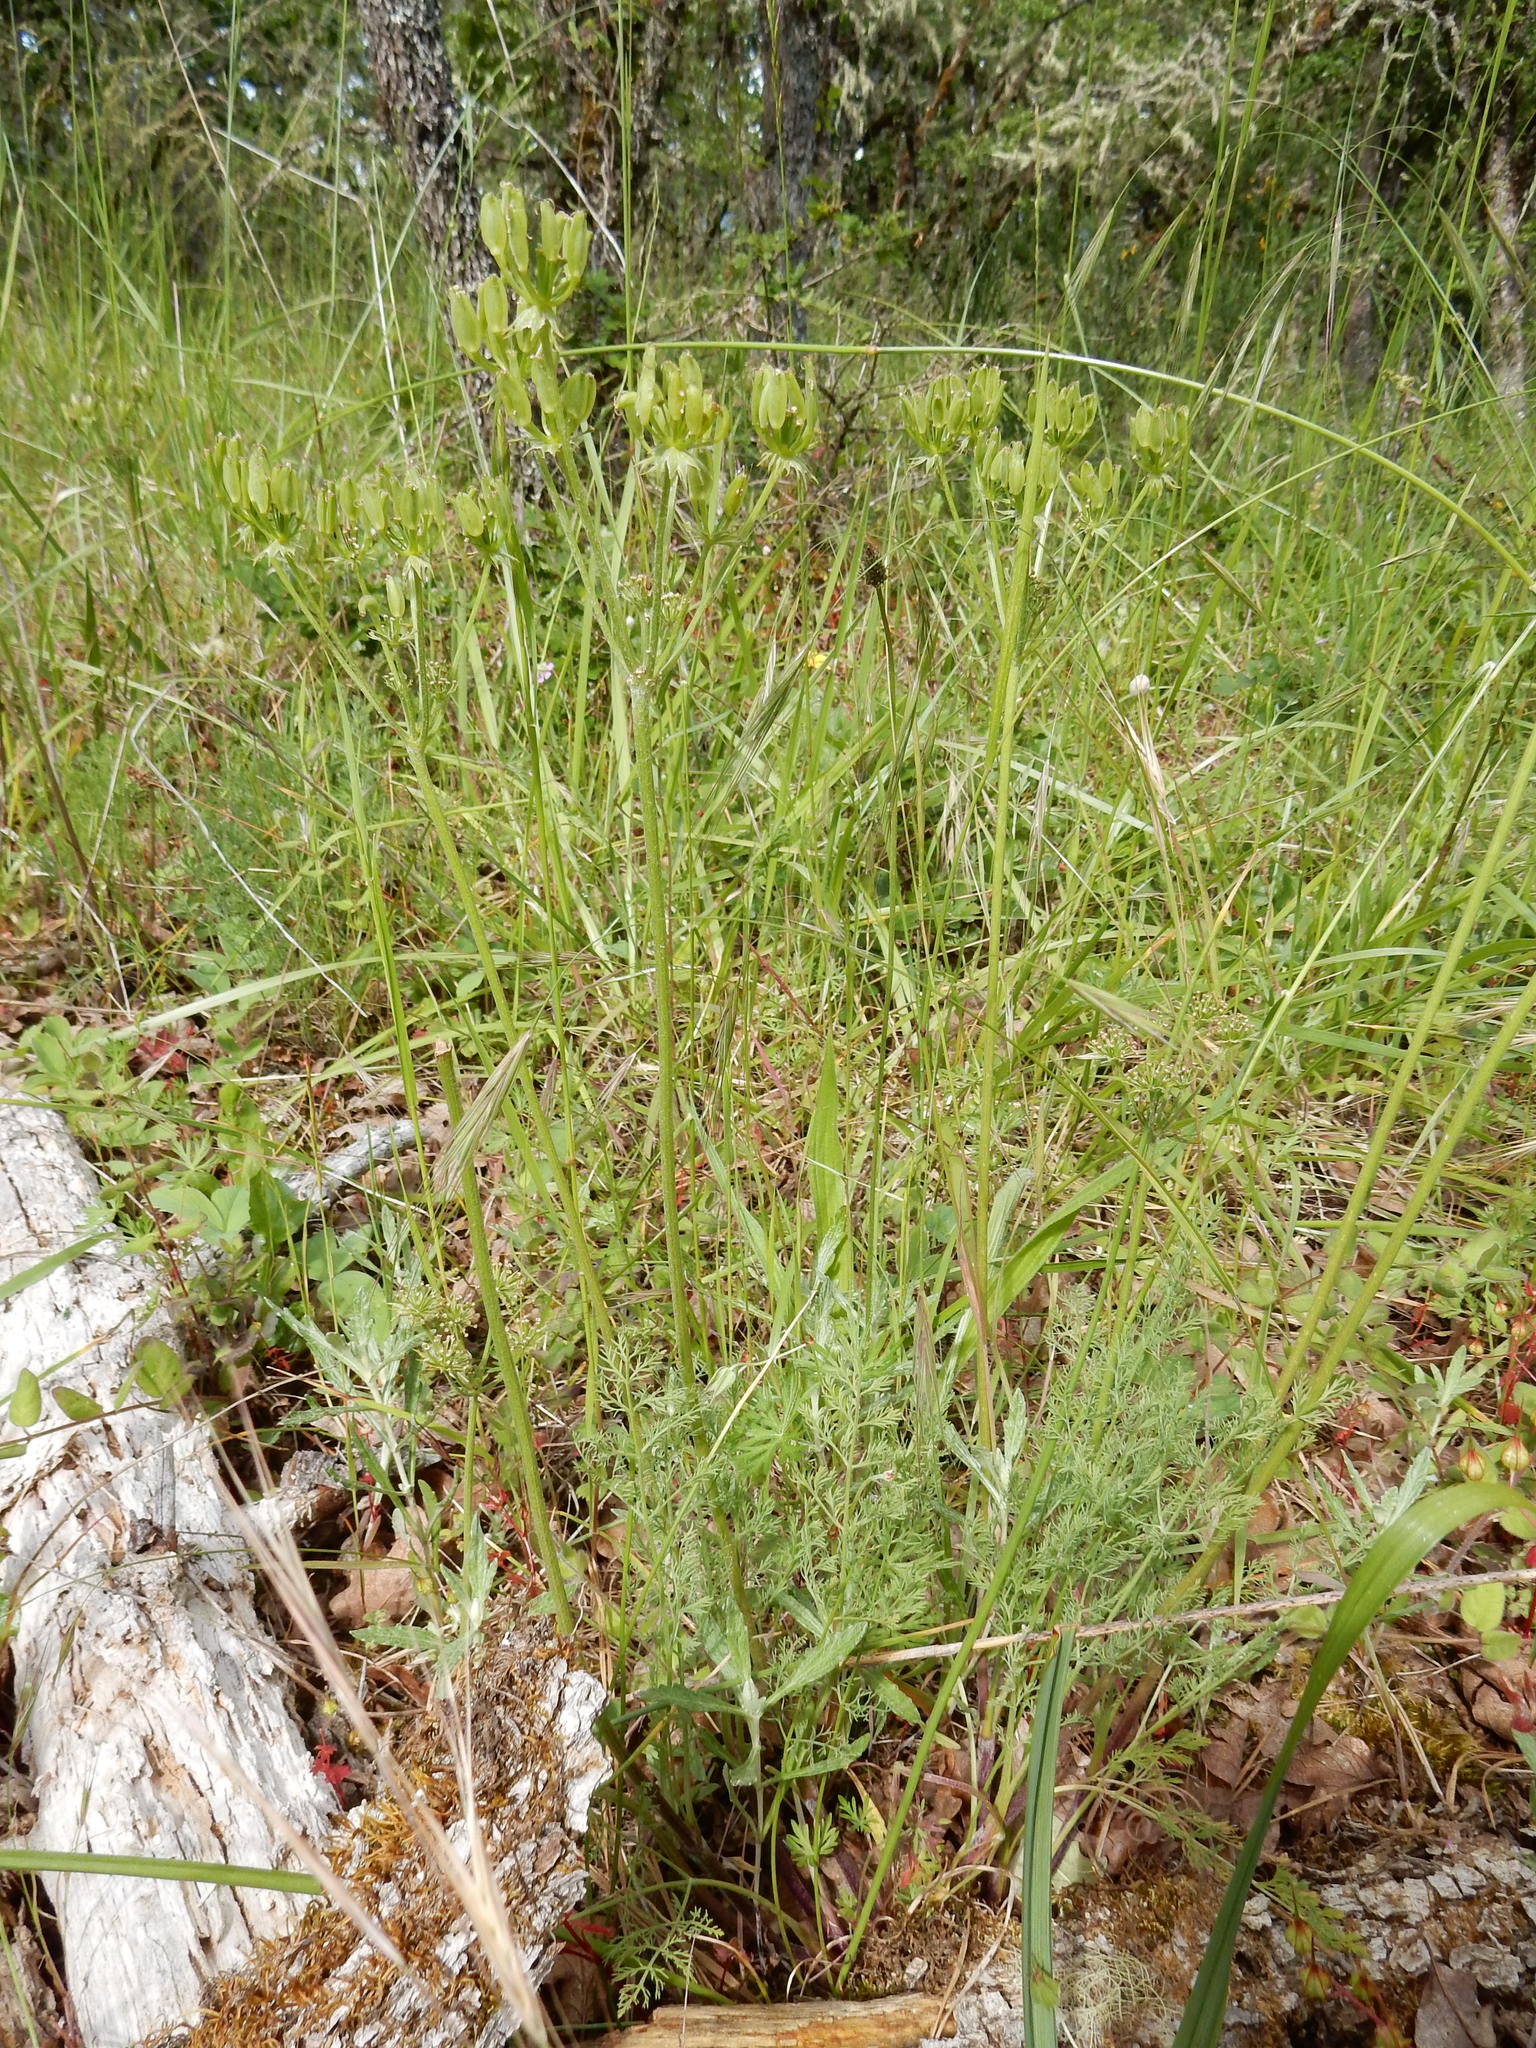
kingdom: Plantae
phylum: Tracheophyta
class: Magnoliopsida
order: Apiales
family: Apiaceae
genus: Lomatium
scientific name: Lomatium macrocarpum
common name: Big-seed biscuitroot
